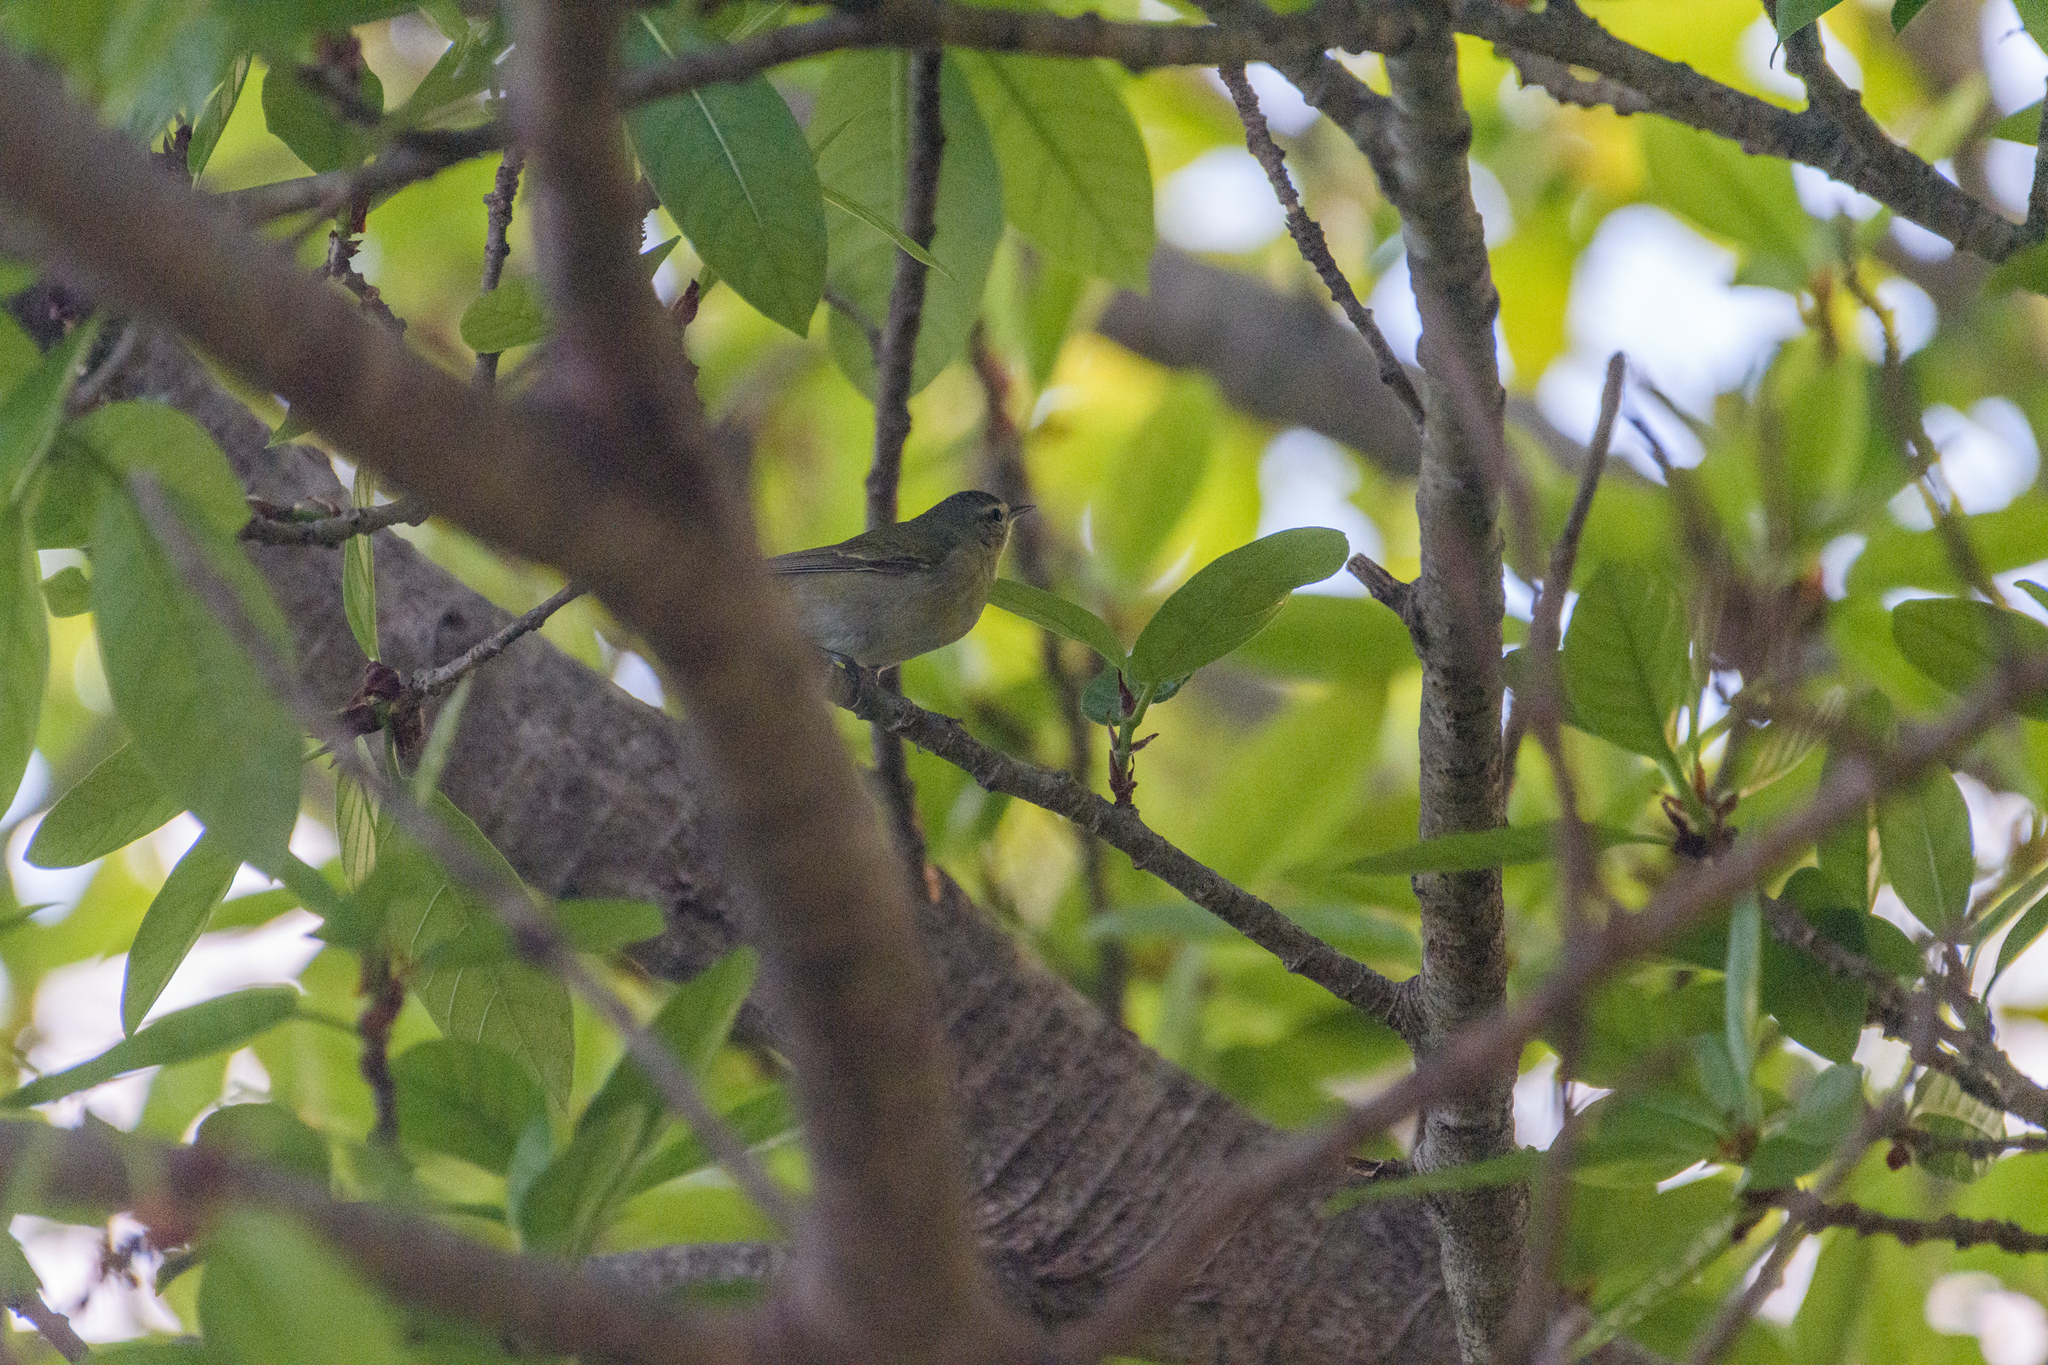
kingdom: Animalia
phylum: Chordata
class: Aves
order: Passeriformes
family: Parulidae
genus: Leiothlypis
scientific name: Leiothlypis peregrina
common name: Tennessee warbler
